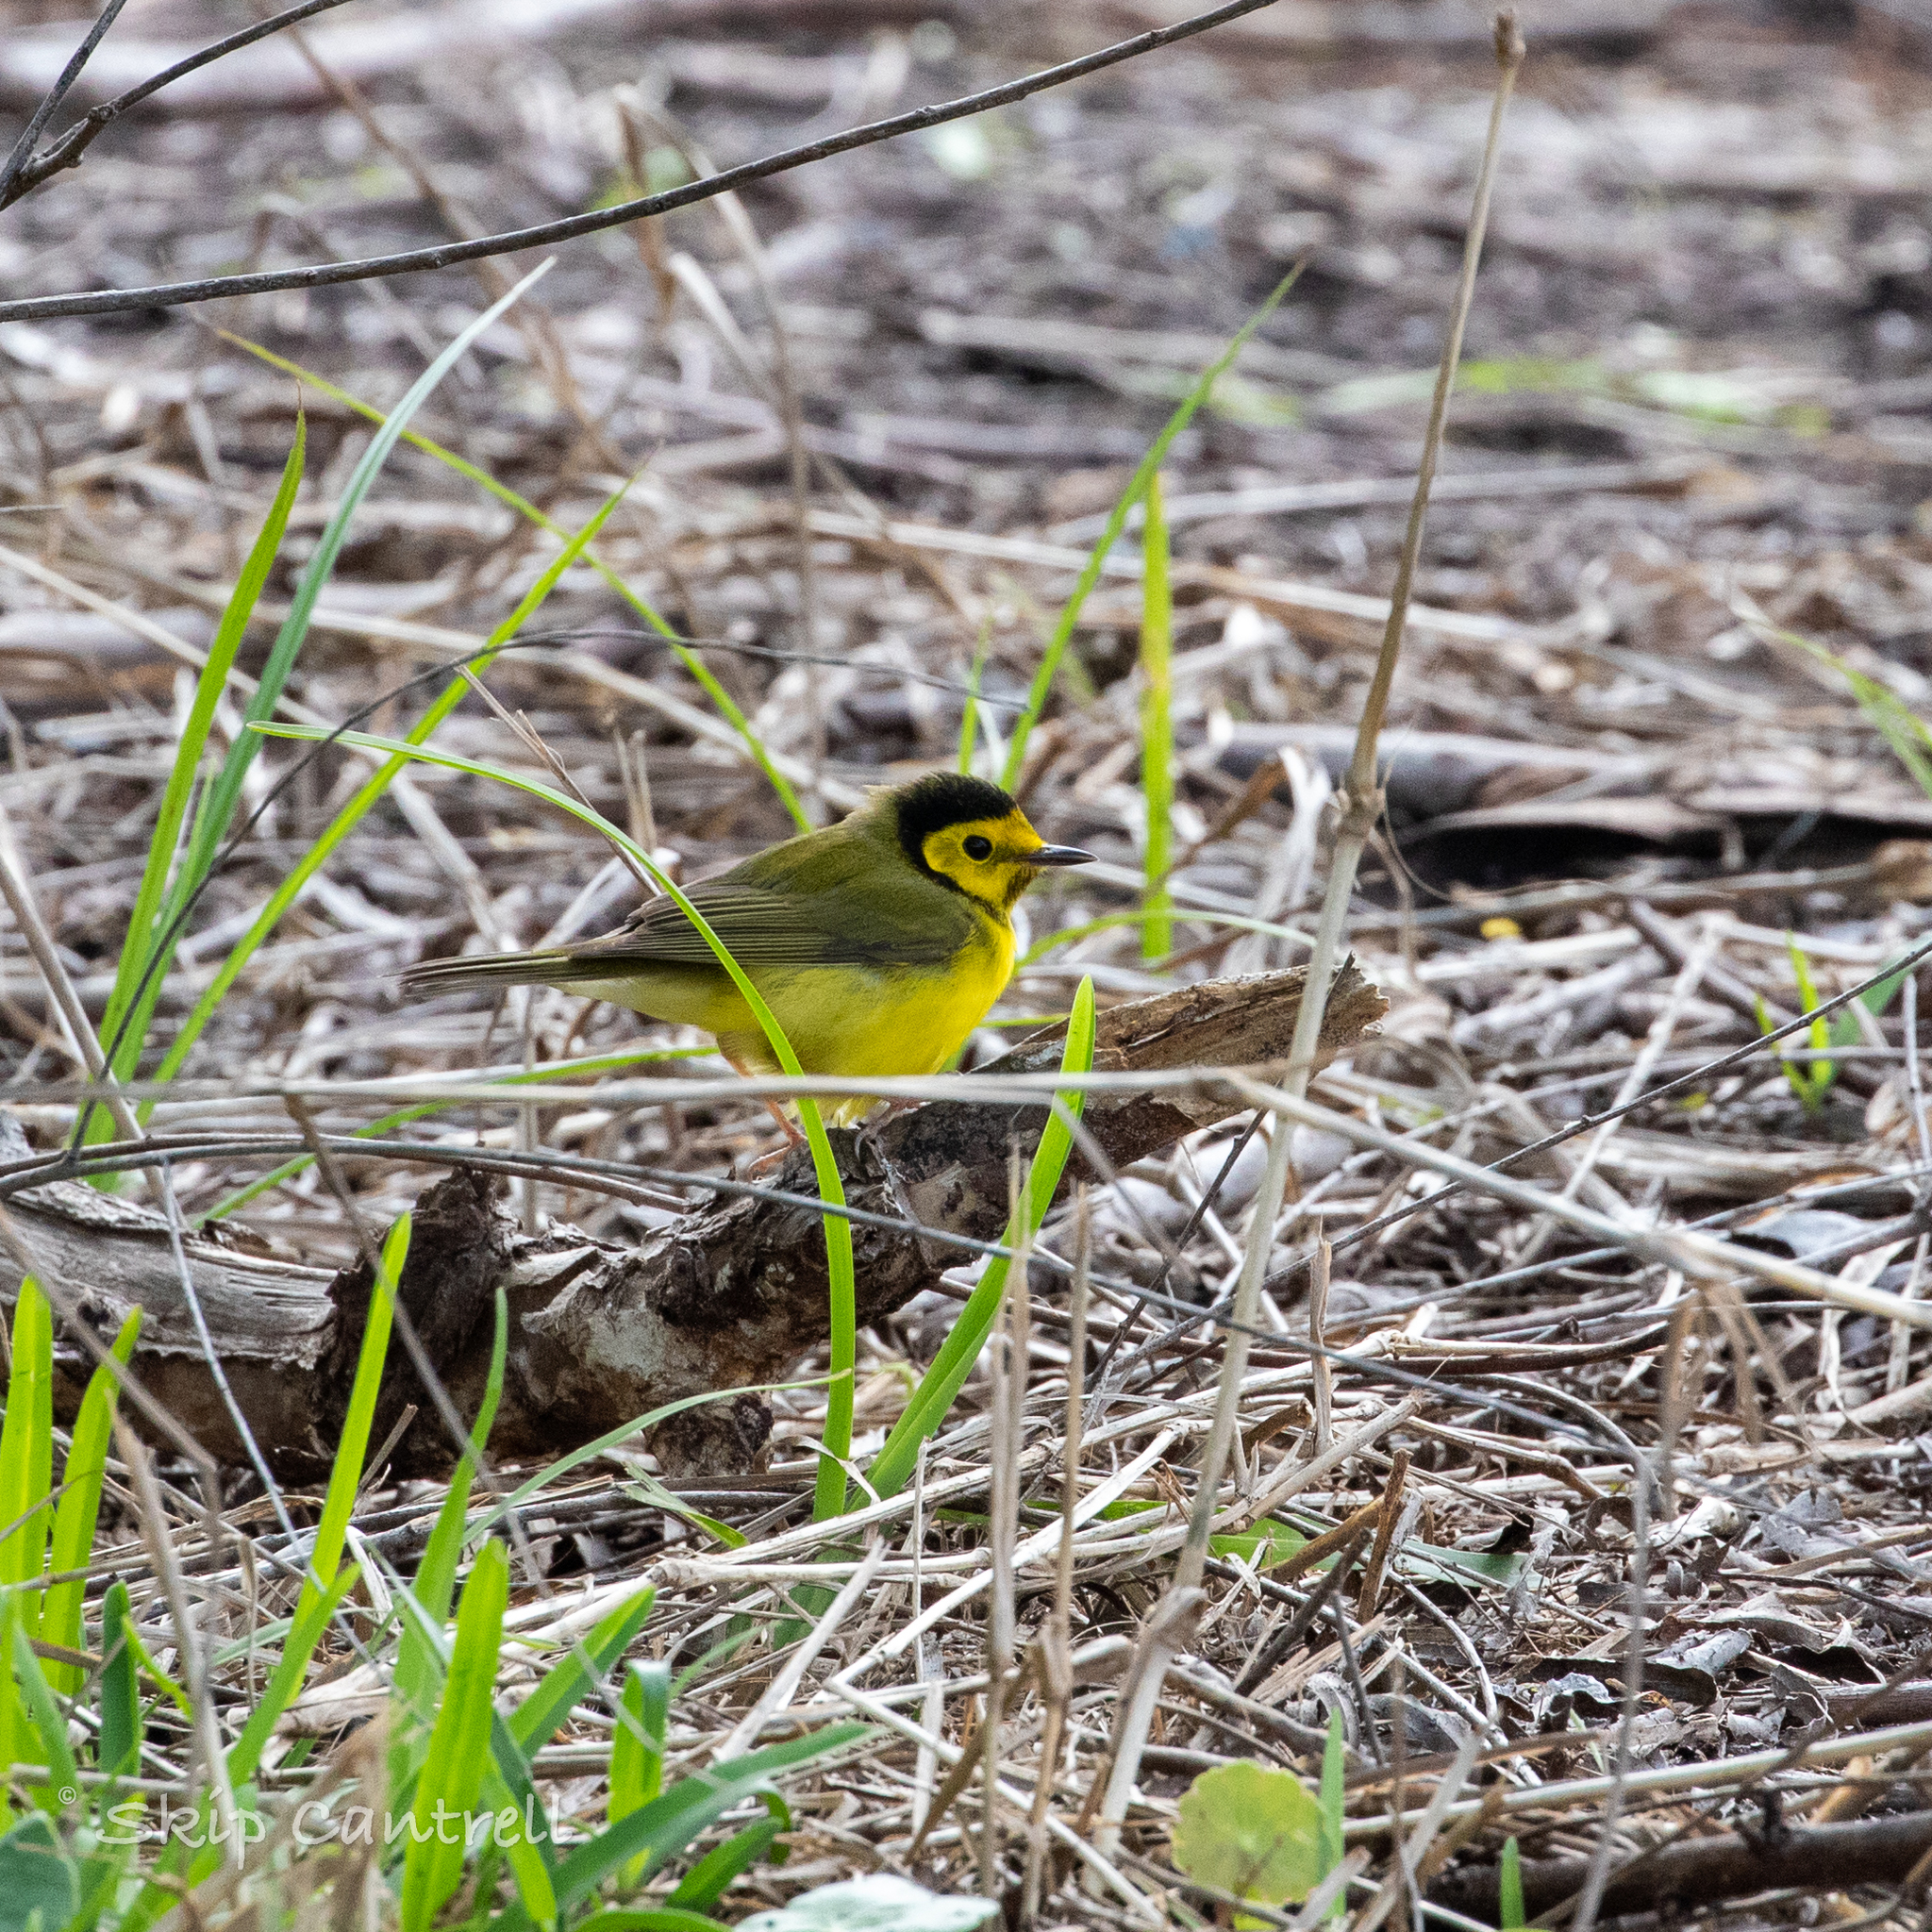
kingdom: Animalia
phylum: Chordata
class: Aves
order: Passeriformes
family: Parulidae
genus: Setophaga
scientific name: Setophaga citrina
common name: Hooded warbler
